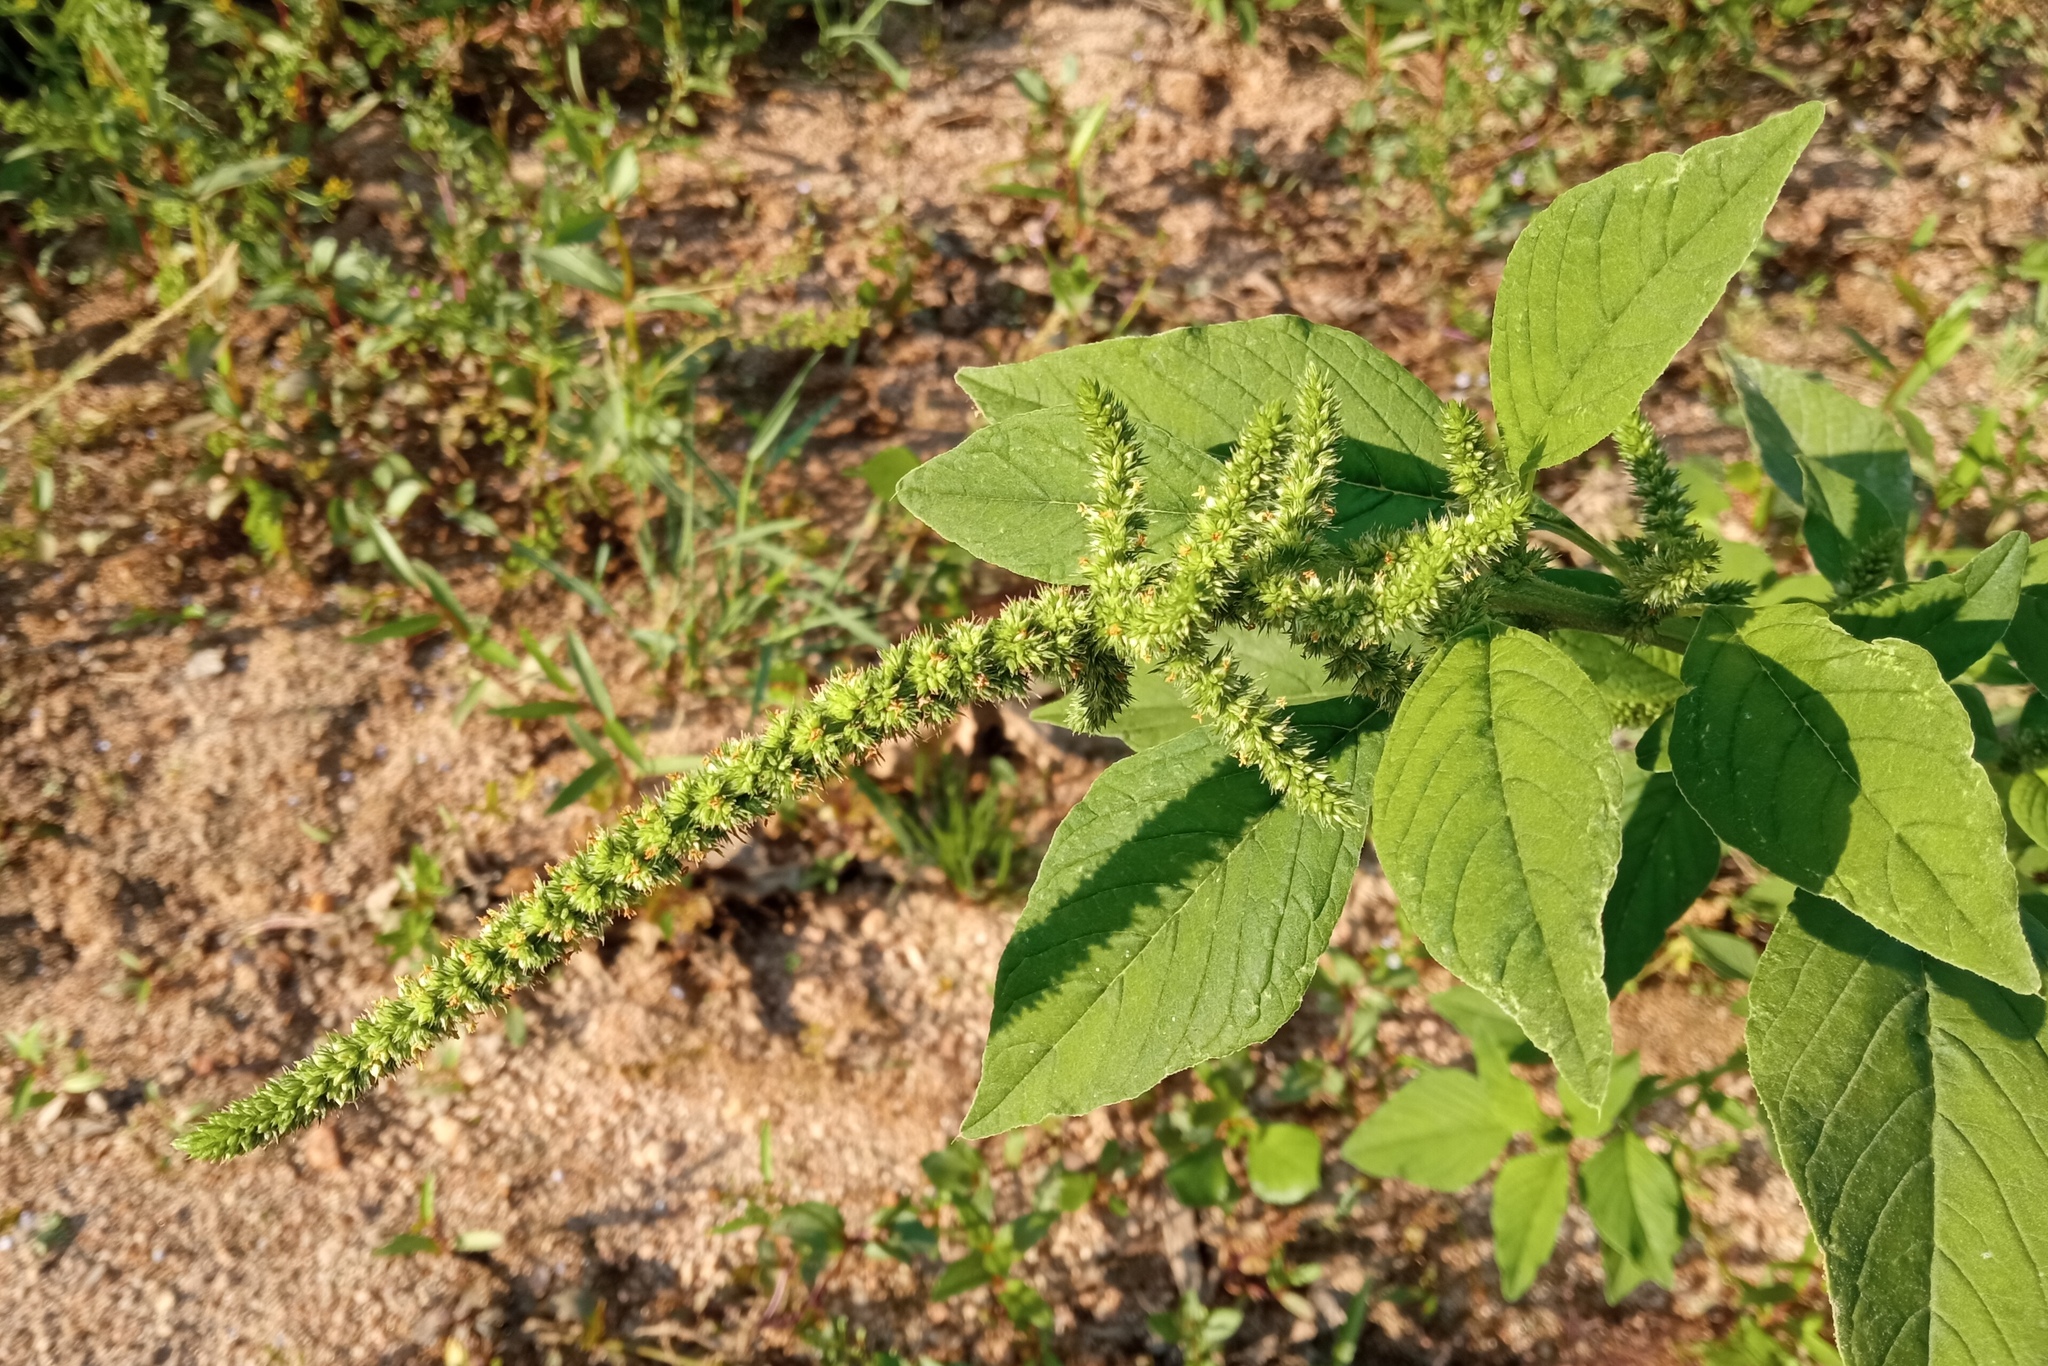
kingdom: Plantae
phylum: Tracheophyta
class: Magnoliopsida
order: Caryophyllales
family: Amaranthaceae
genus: Amaranthus
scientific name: Amaranthus hybridus
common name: Green amaranth
